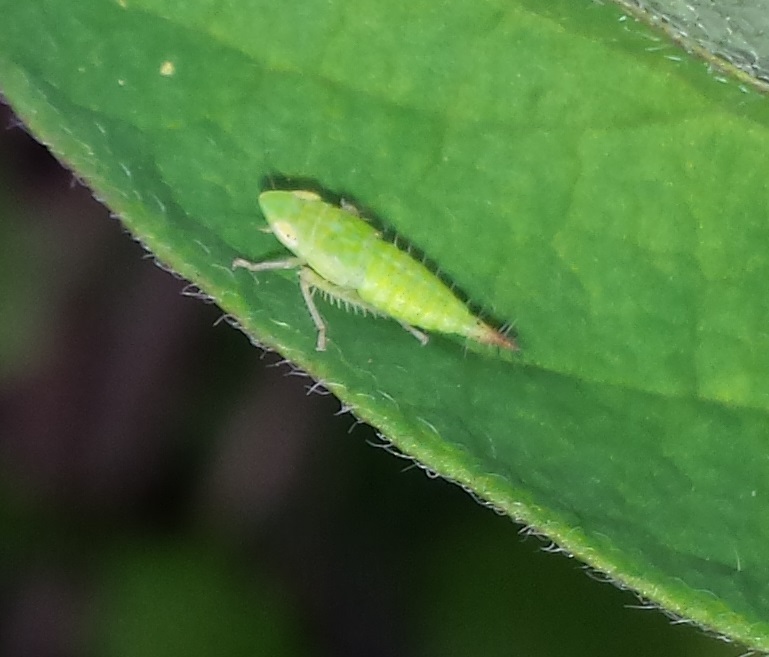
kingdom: Animalia
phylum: Arthropoda
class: Insecta
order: Hemiptera
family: Cicadellidae
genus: Fieberiella
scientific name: Fieberiella florii
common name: Flor’s leafhopper
